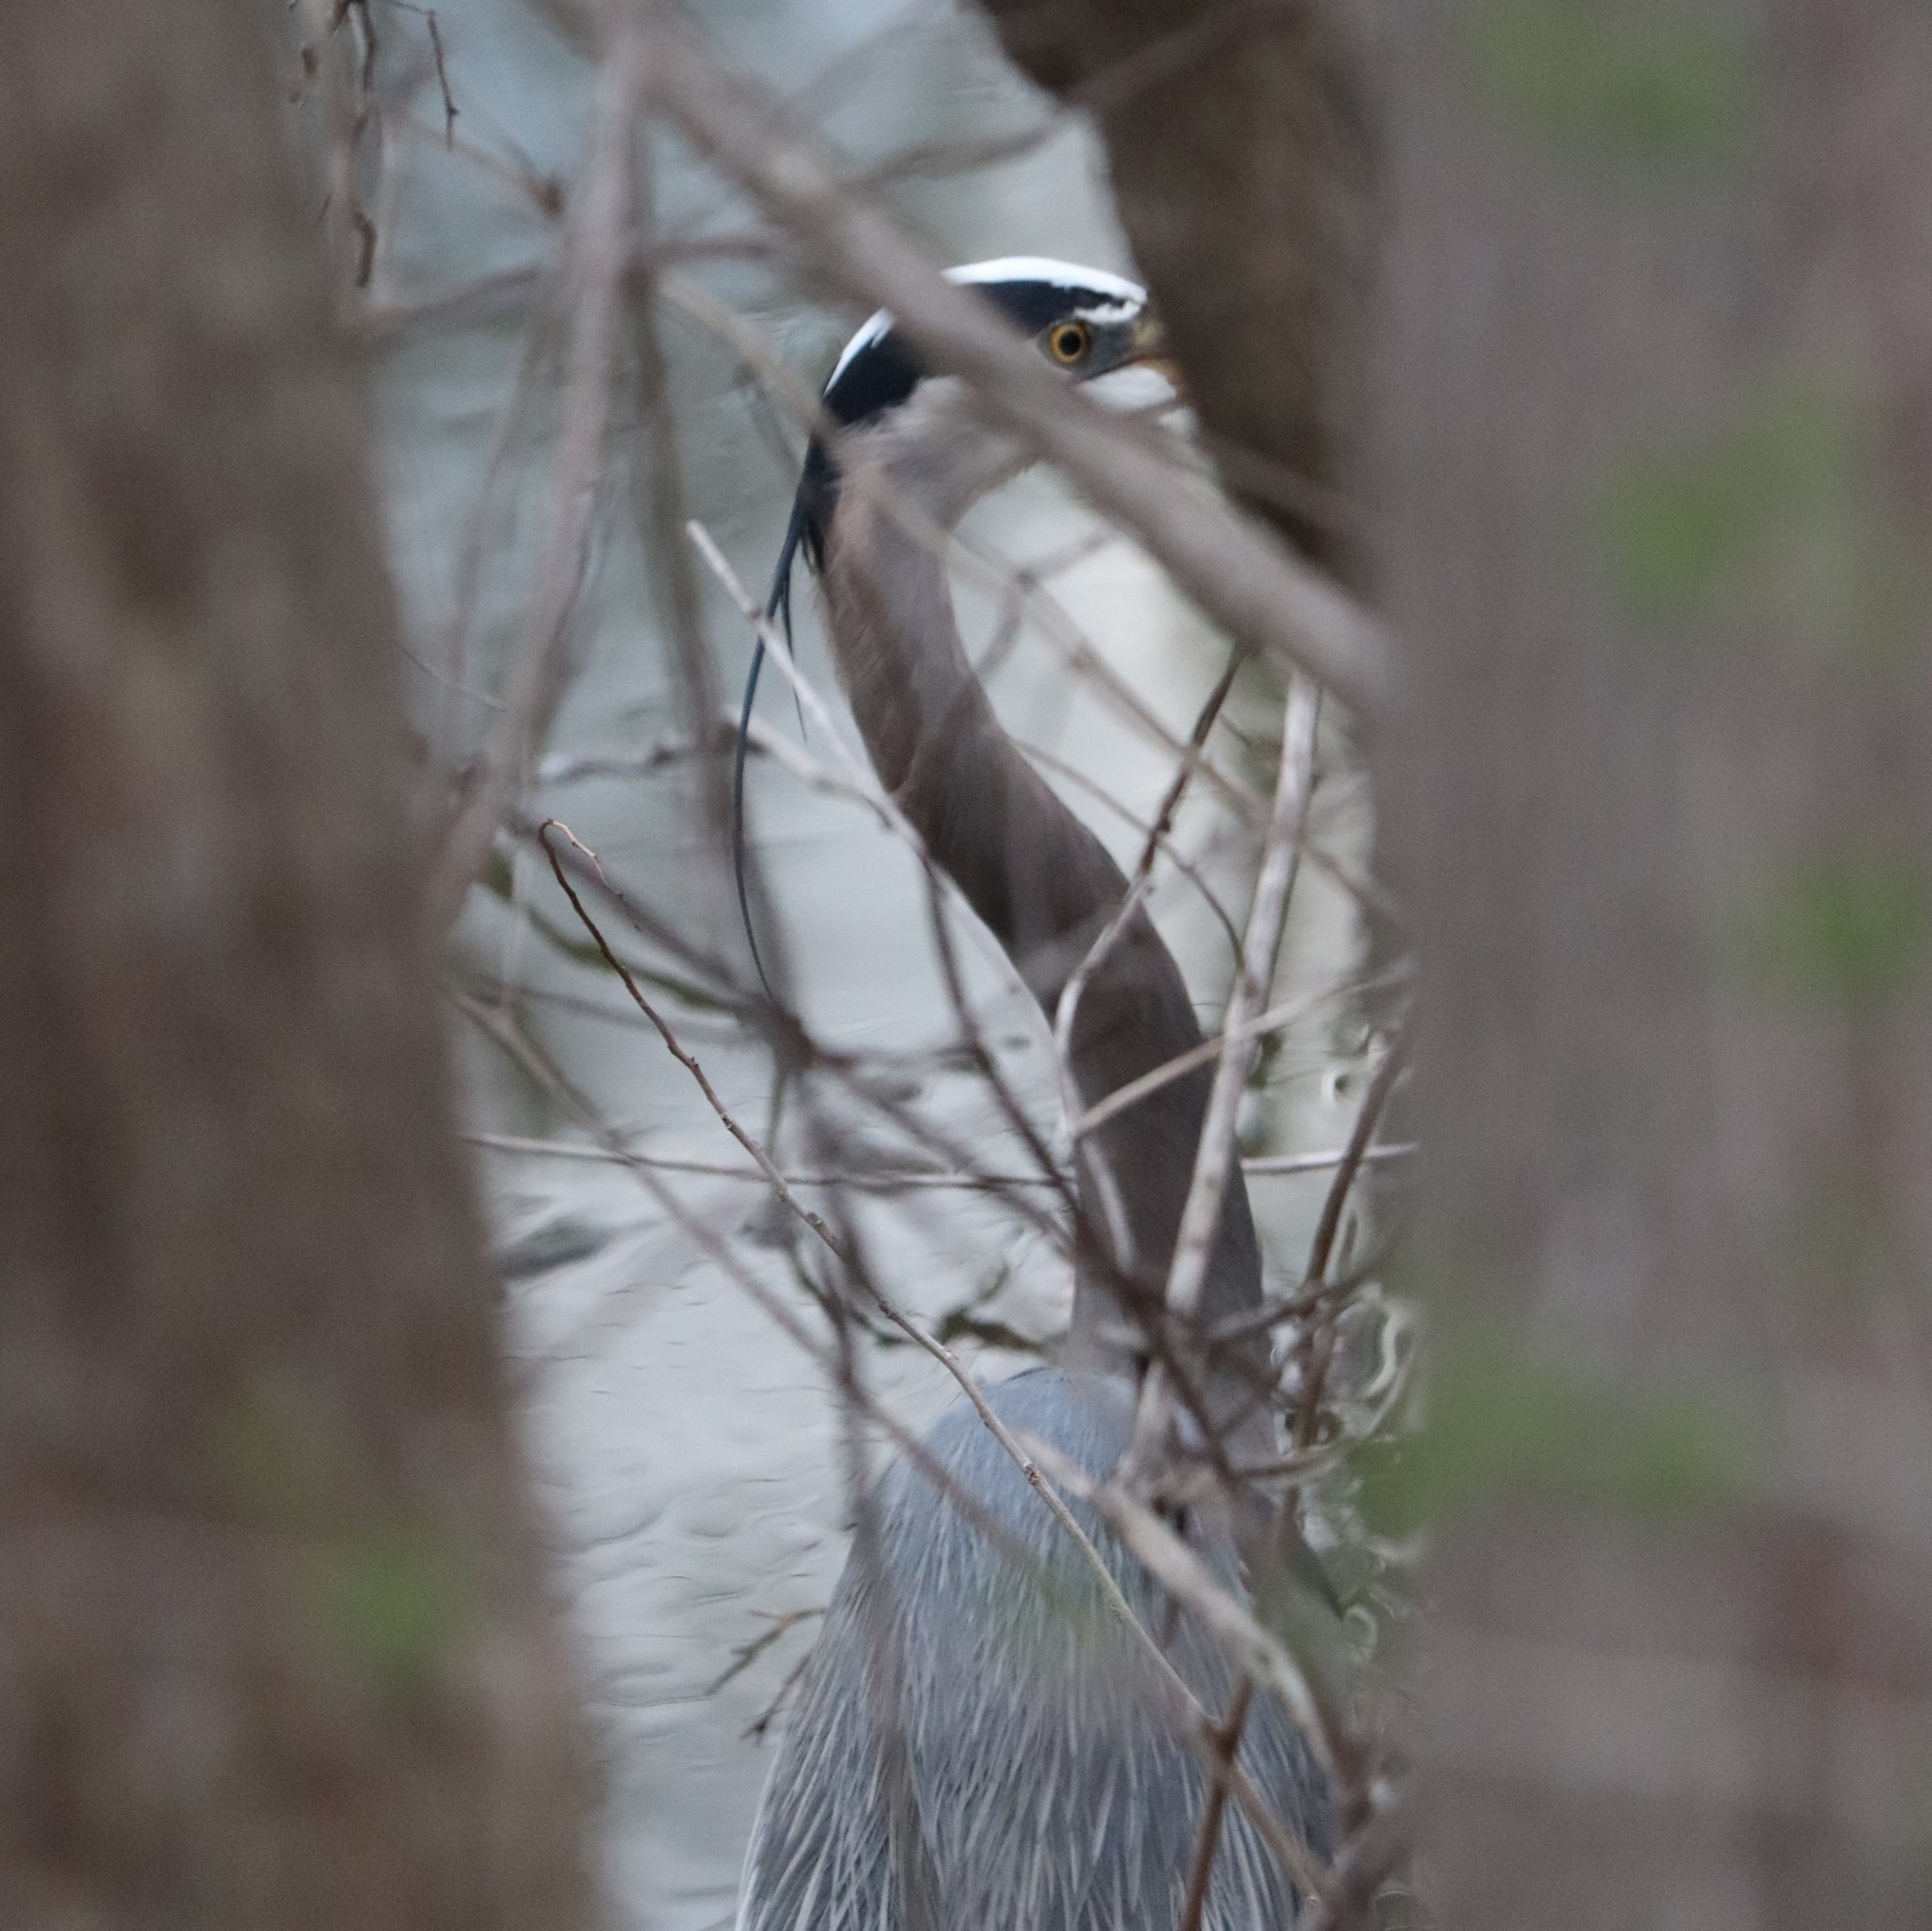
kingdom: Animalia
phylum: Chordata
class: Aves
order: Pelecaniformes
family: Ardeidae
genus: Ardea
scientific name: Ardea herodias
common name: Great blue heron
